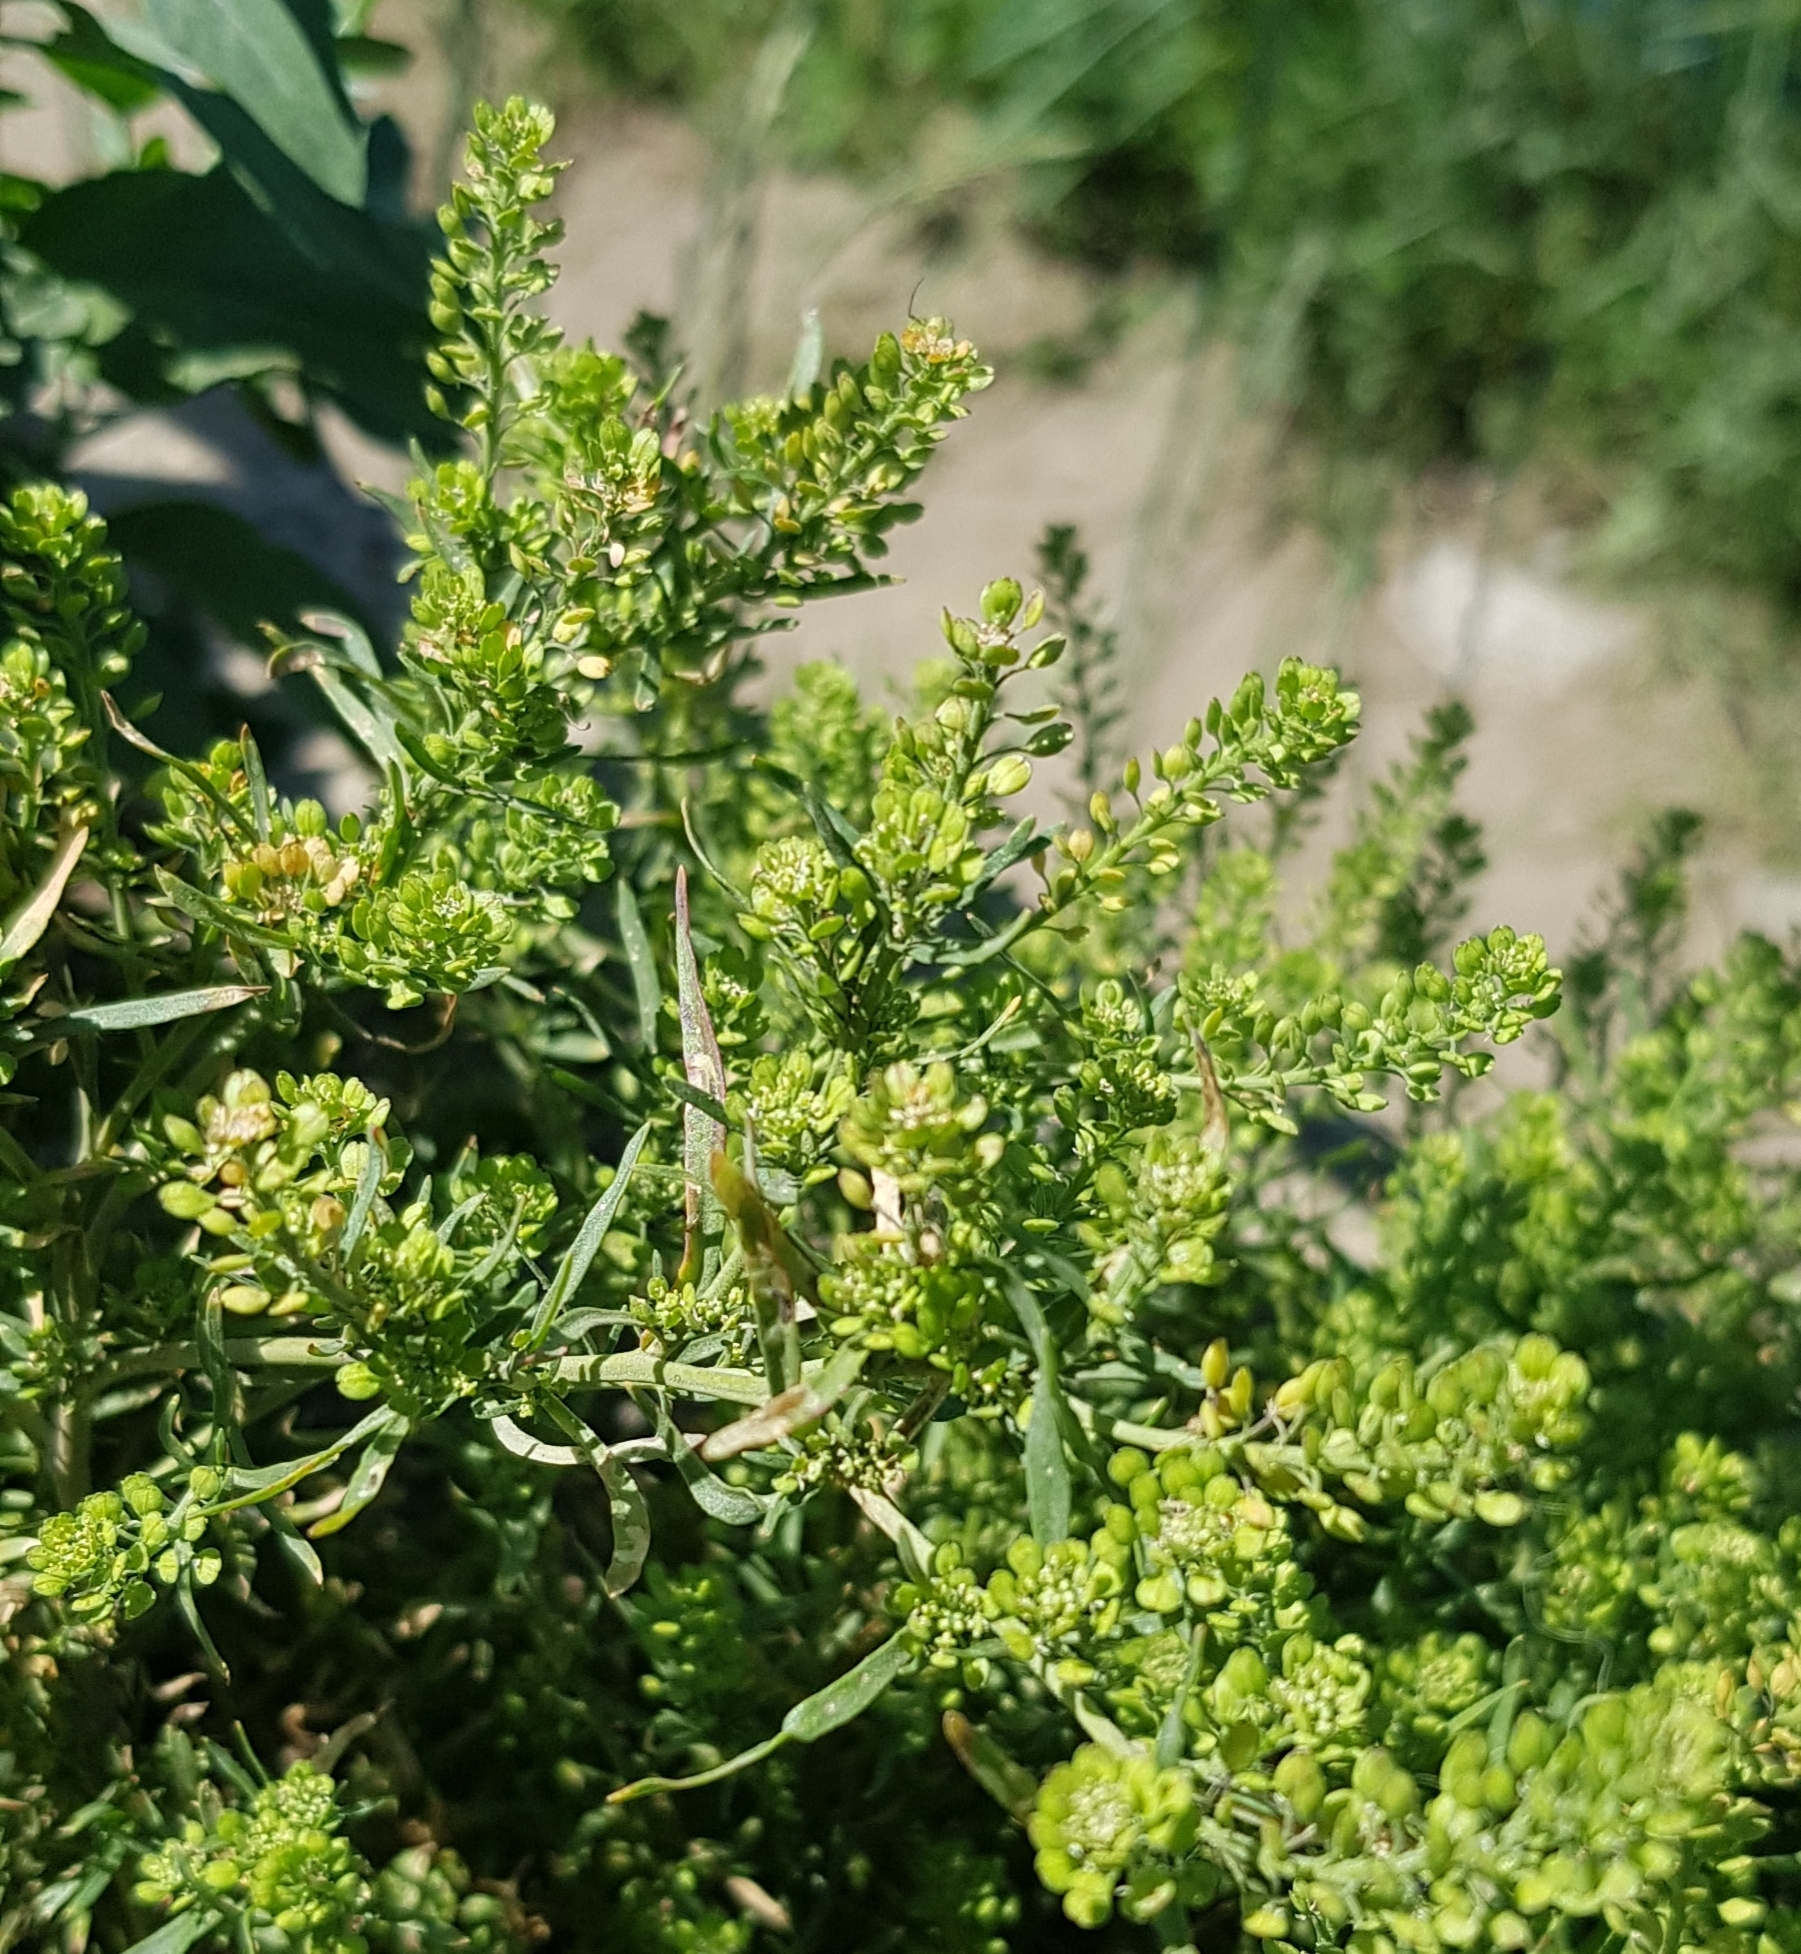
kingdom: Plantae
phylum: Tracheophyta
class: Magnoliopsida
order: Brassicales
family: Brassicaceae
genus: Lepidium
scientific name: Lepidium apetalum
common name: Pepperweed
